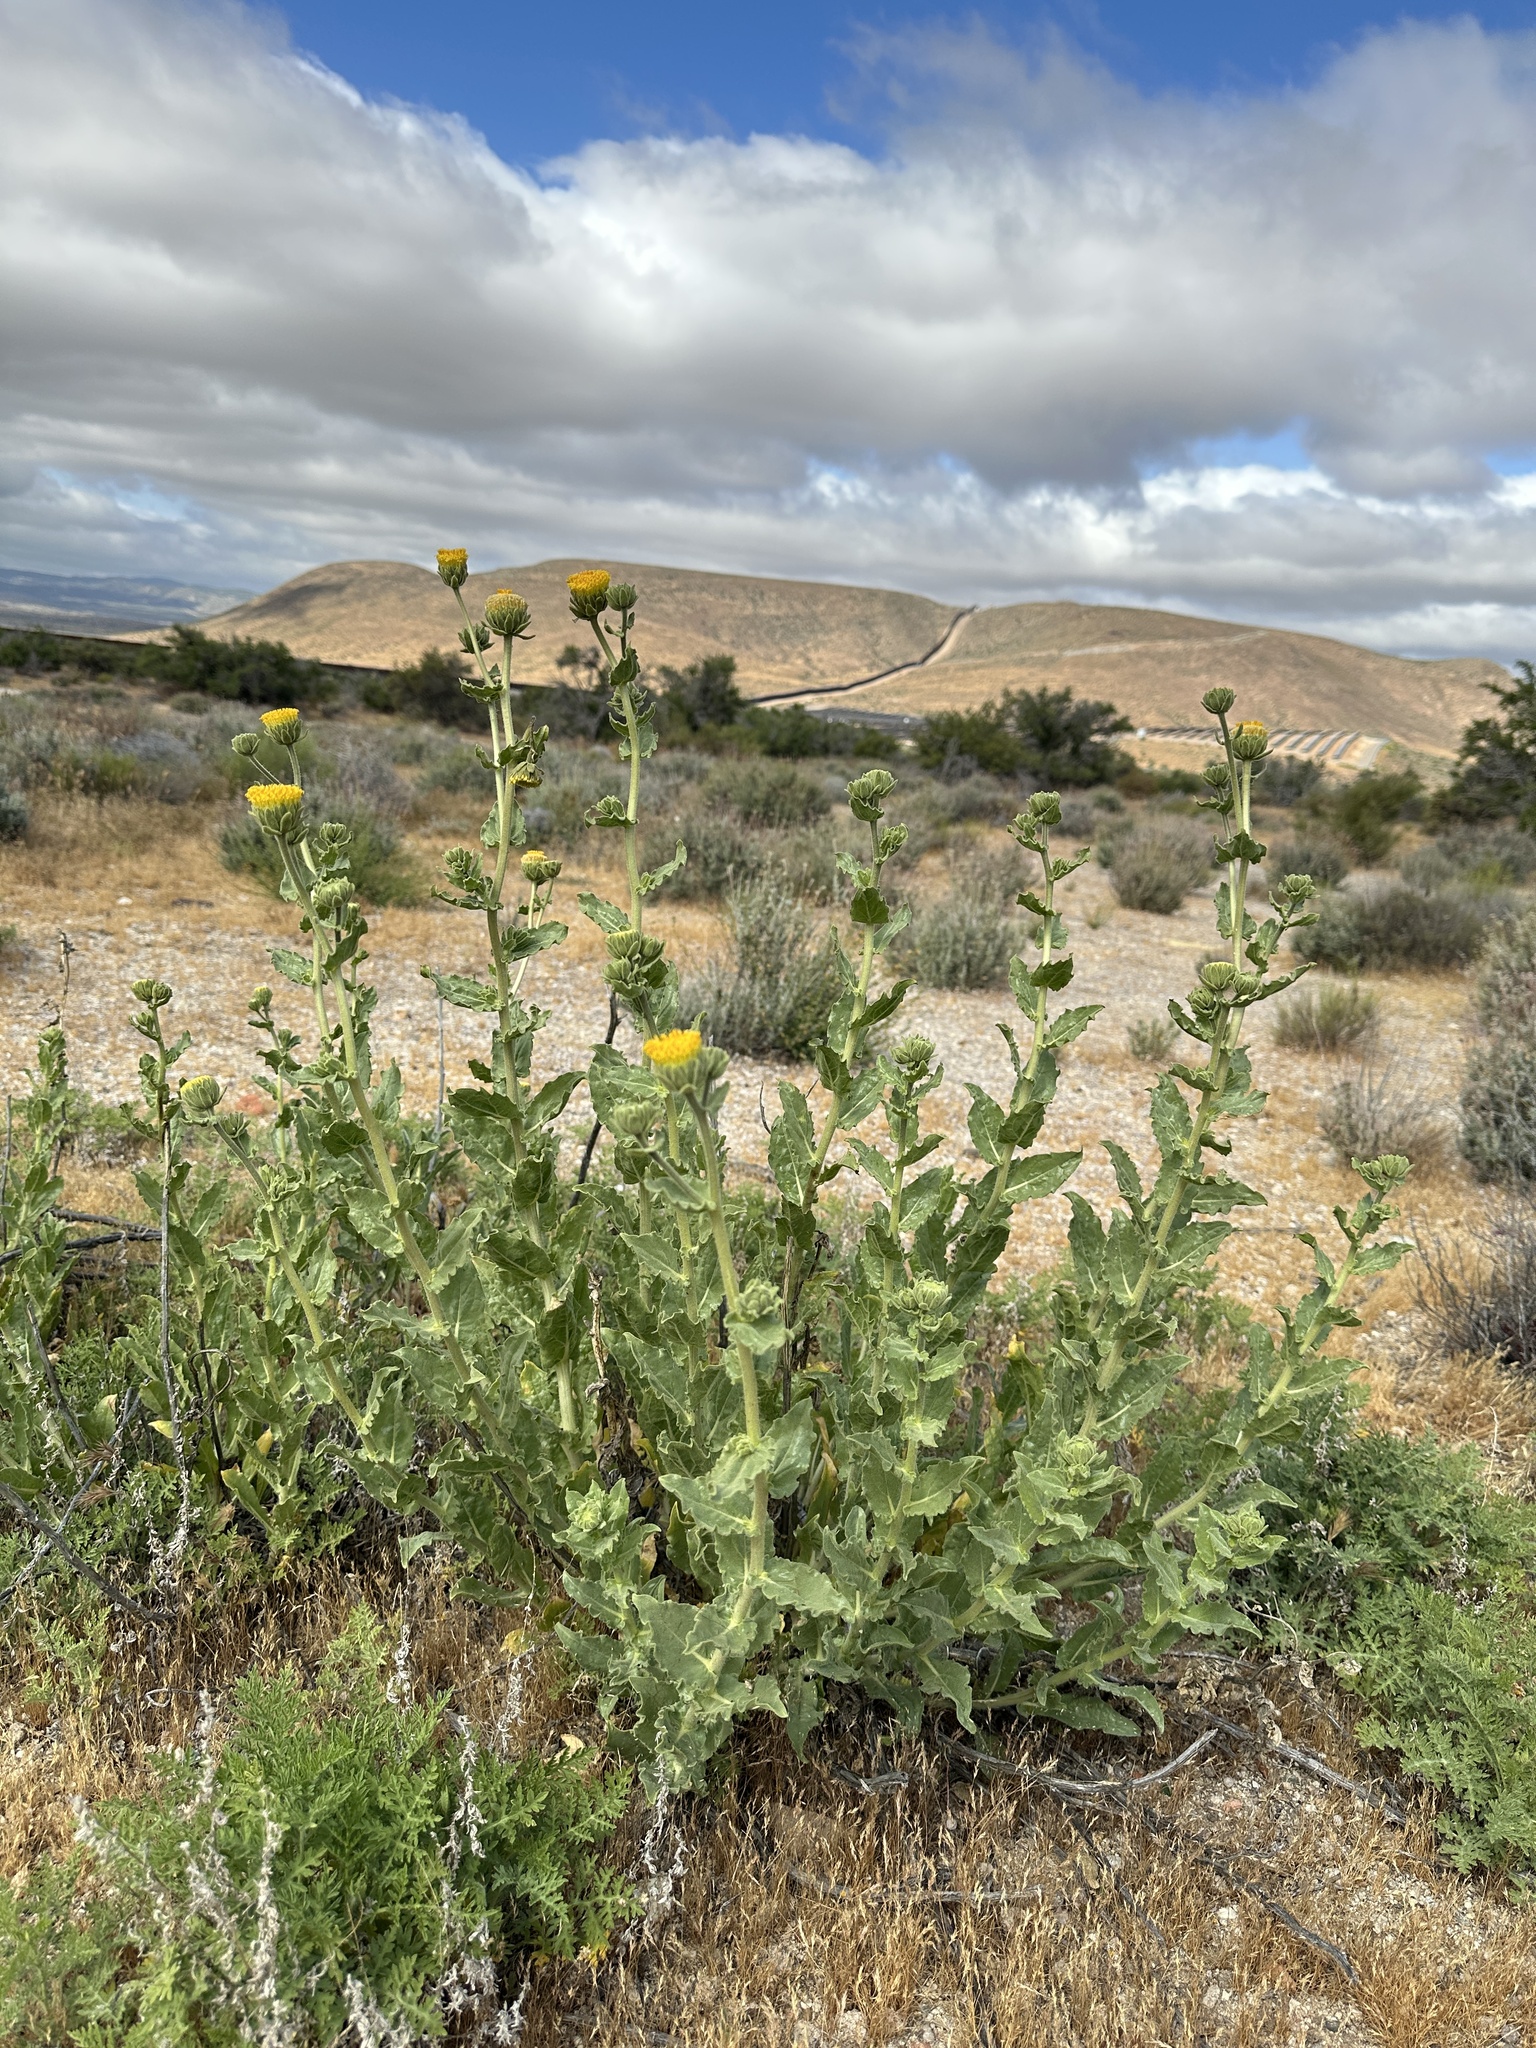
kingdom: Plantae
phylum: Tracheophyta
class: Magnoliopsida
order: Asterales
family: Asteraceae
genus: Geraea
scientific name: Geraea viscida
